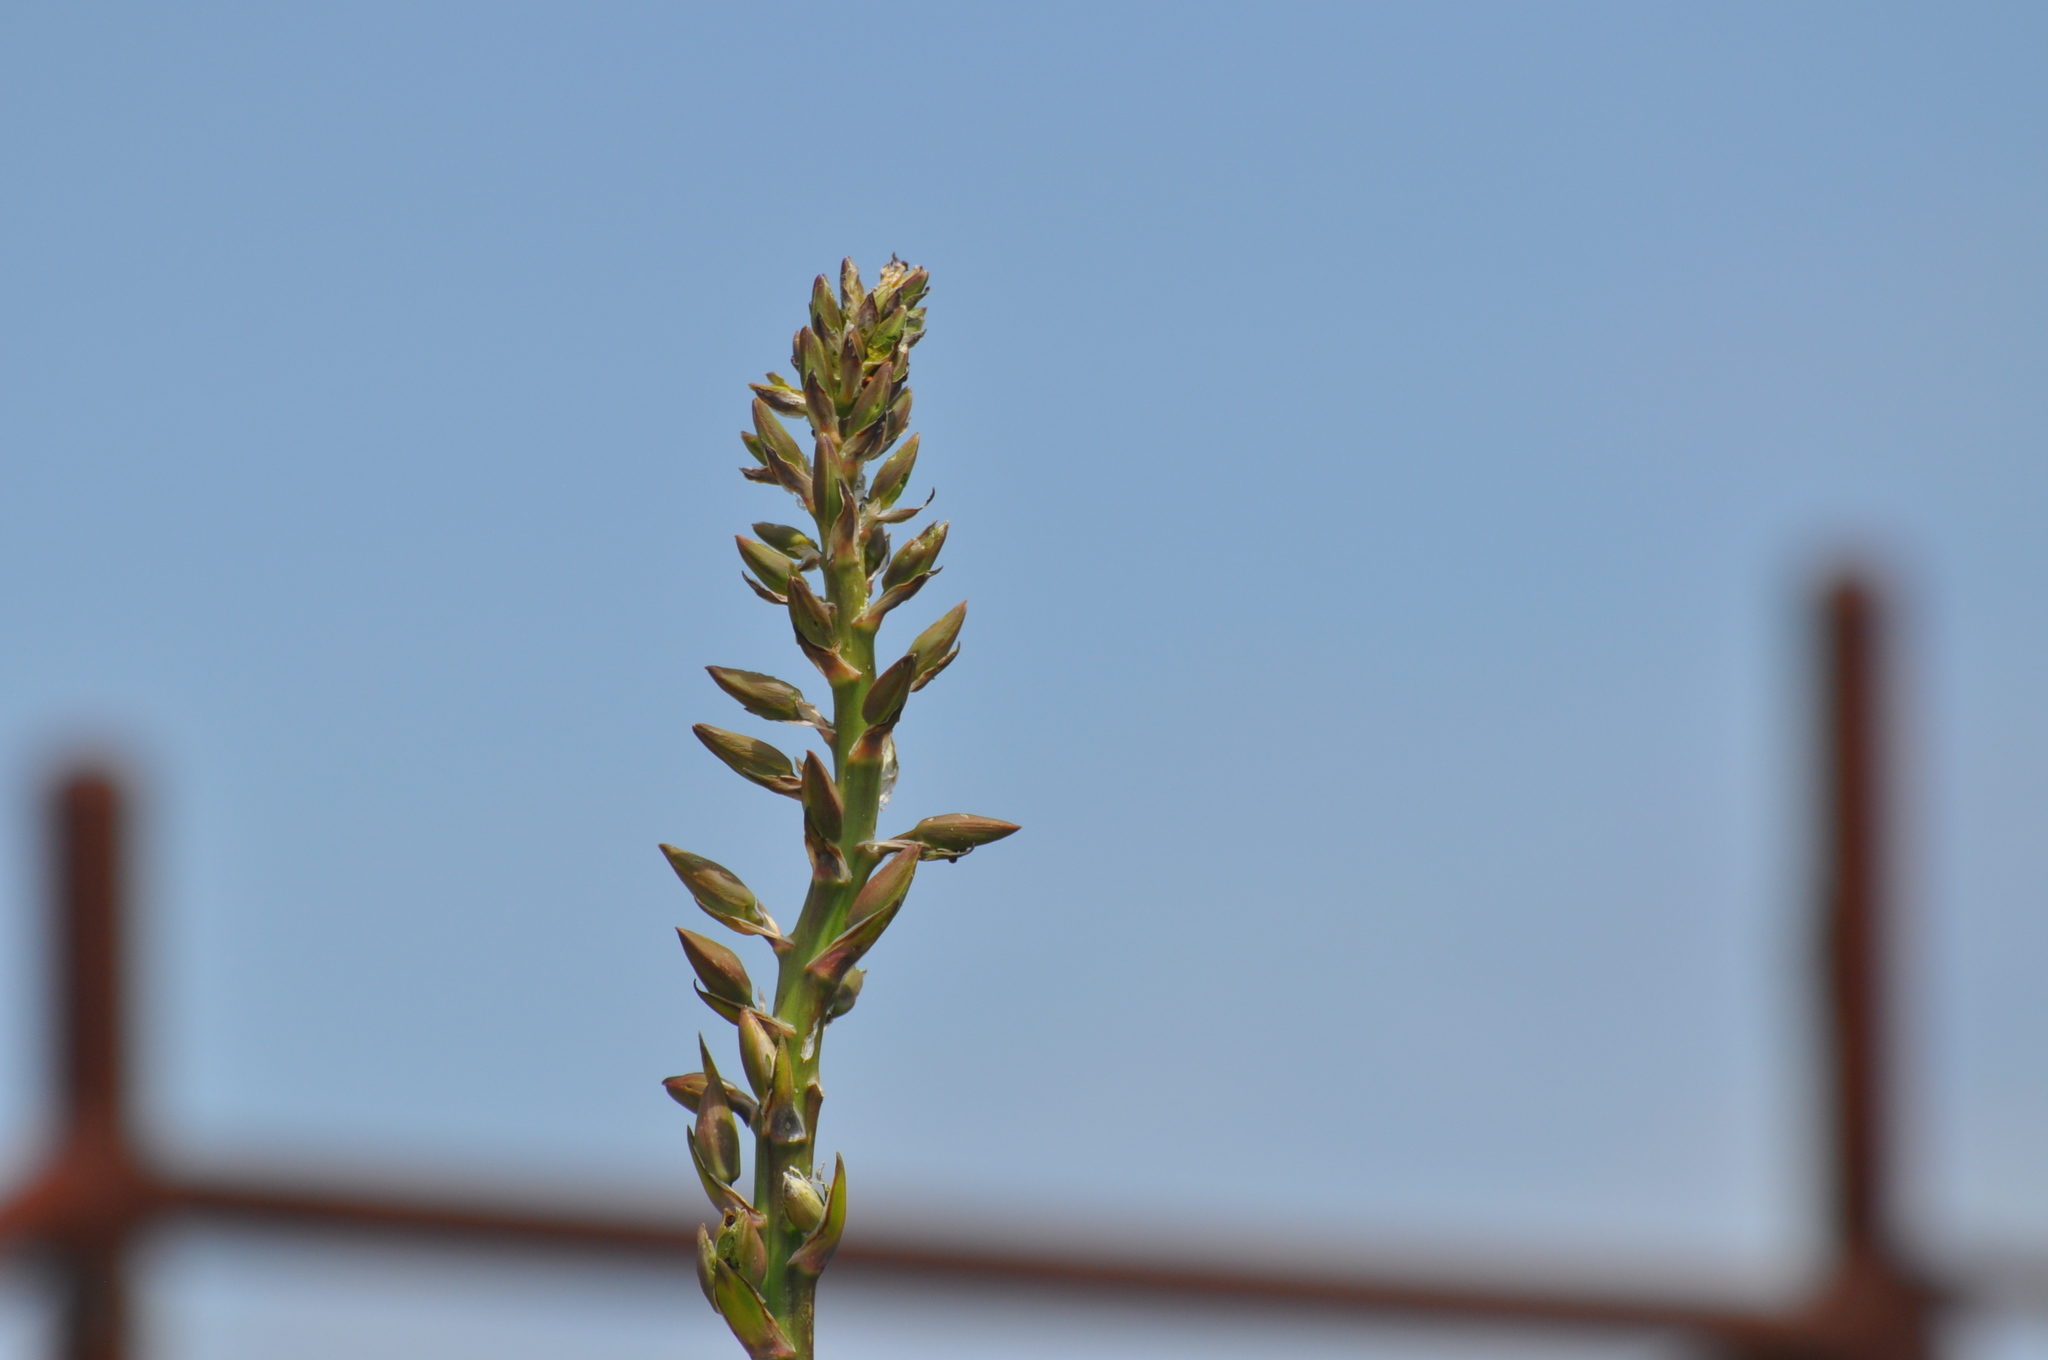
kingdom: Plantae
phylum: Tracheophyta
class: Liliopsida
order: Asparagales
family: Asparagaceae
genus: Yucca
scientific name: Yucca arkansana
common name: Arkansas yucca
